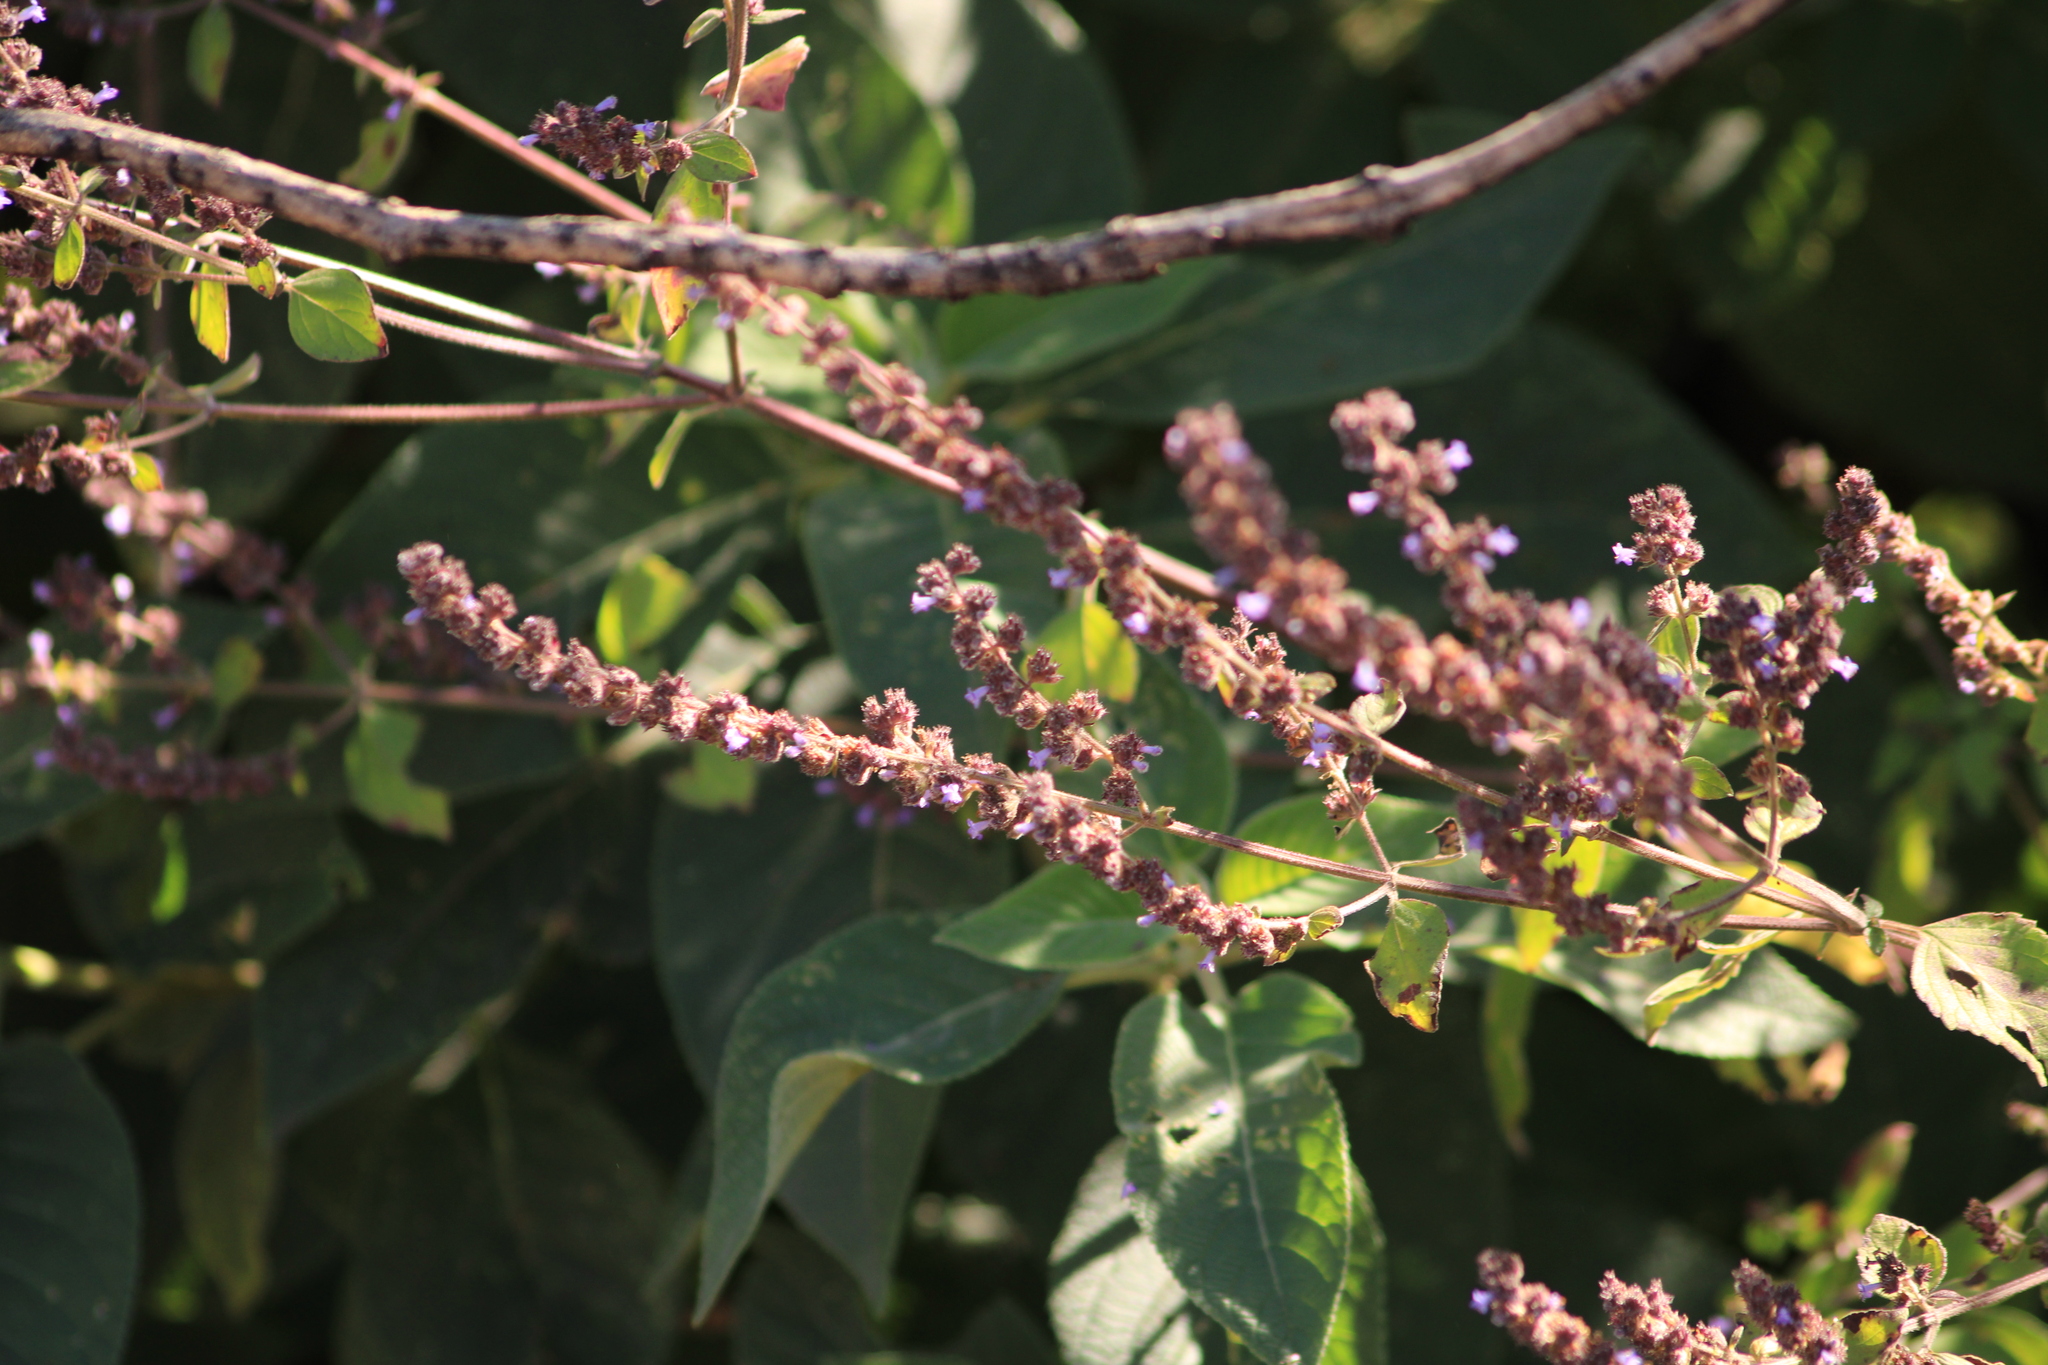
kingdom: Plantae
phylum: Tracheophyta
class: Magnoliopsida
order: Lamiales
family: Lamiaceae
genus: Cantinoa
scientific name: Cantinoa mutabilis
